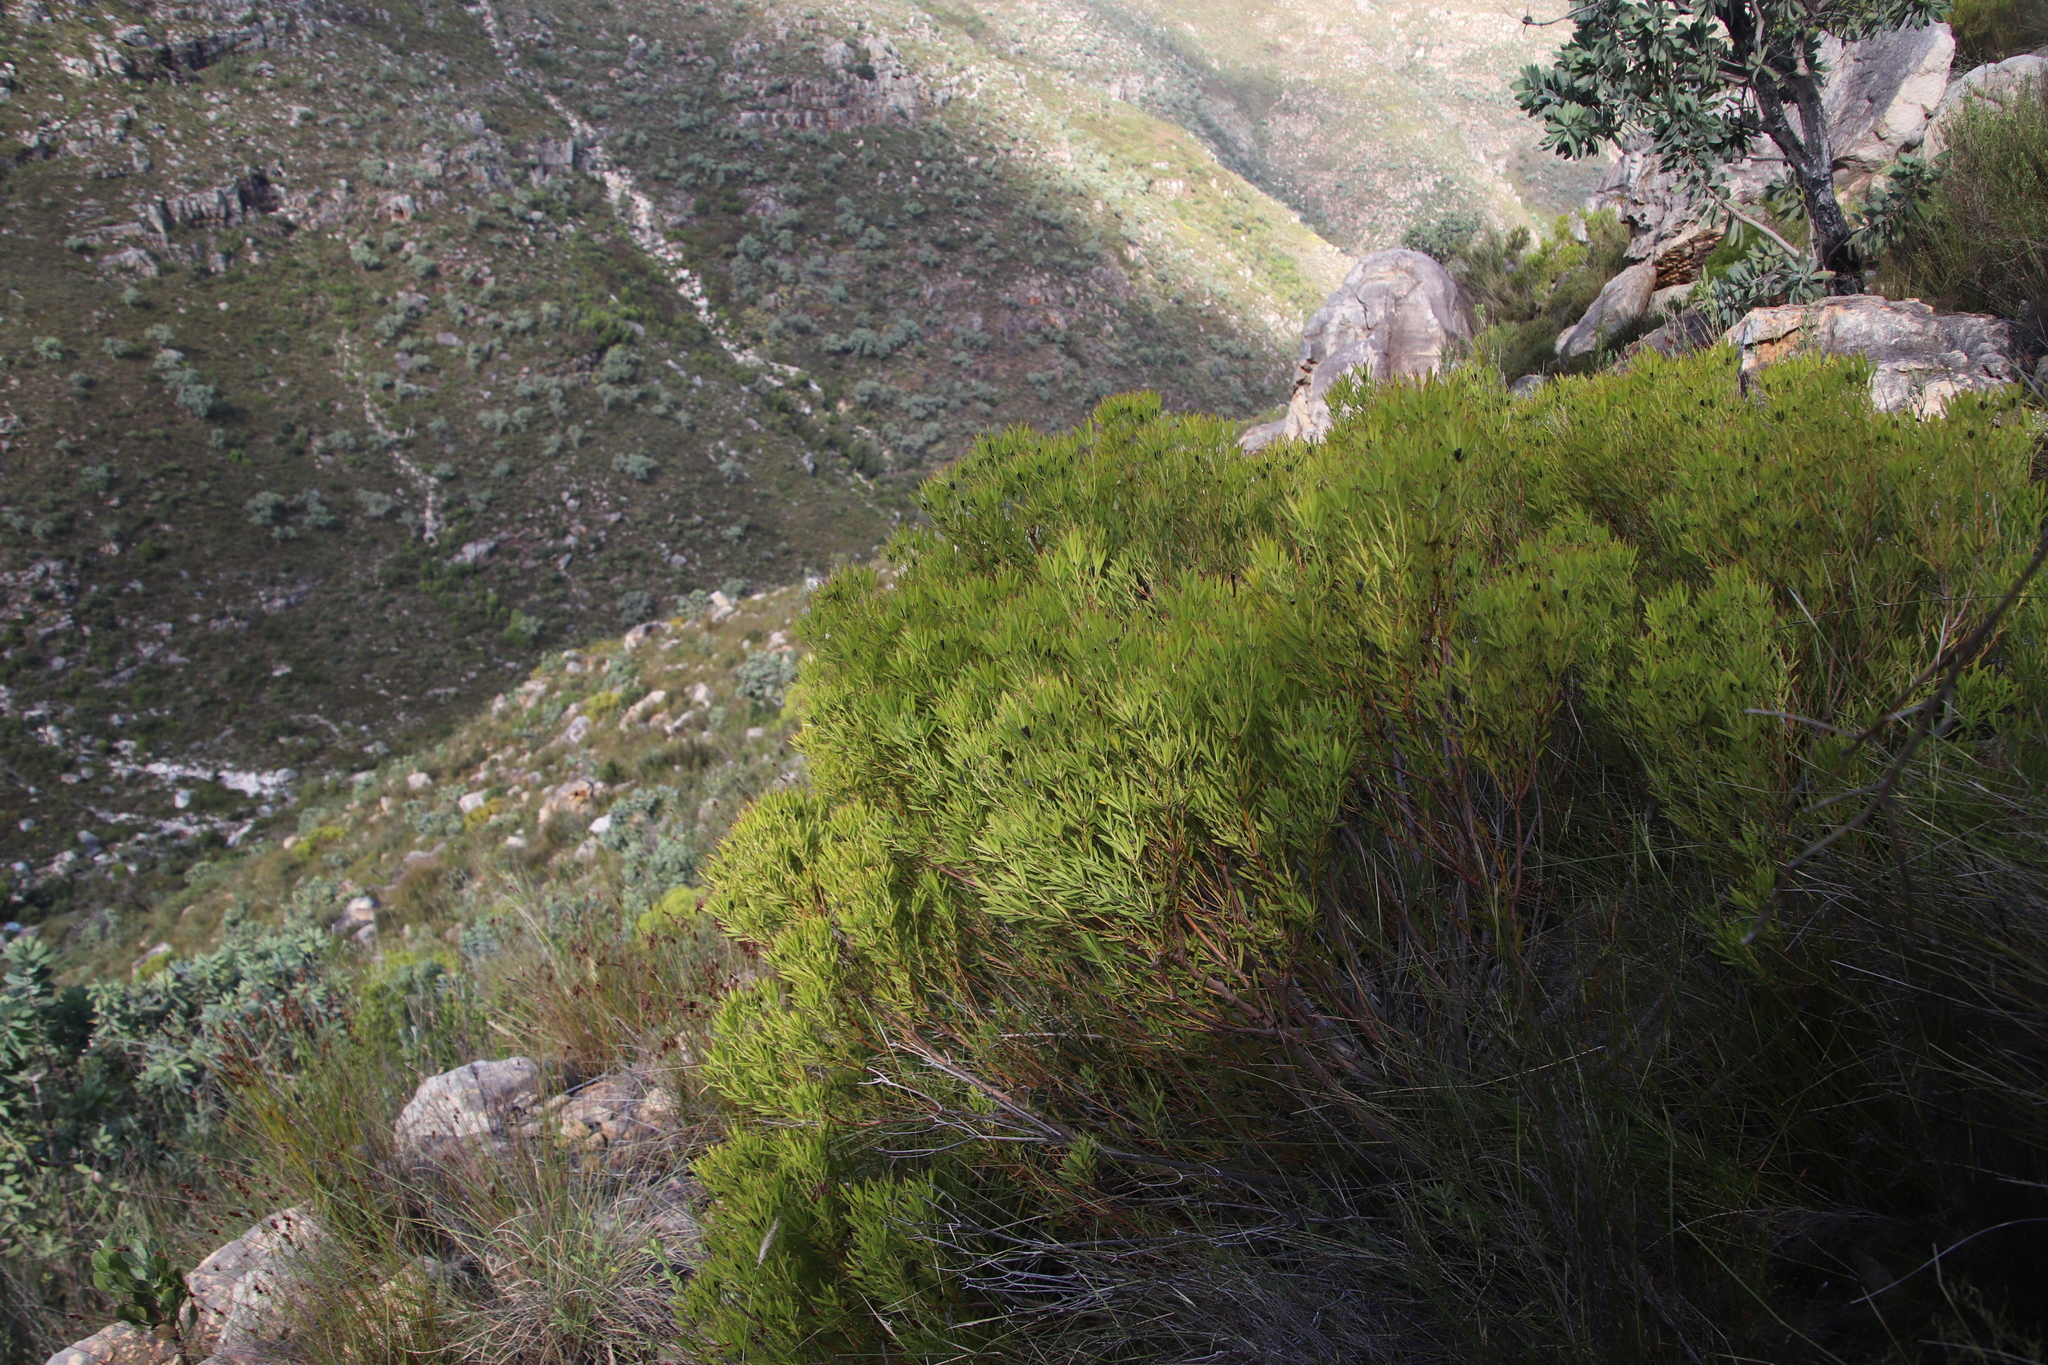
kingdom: Plantae
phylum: Tracheophyta
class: Magnoliopsida
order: Proteales
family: Proteaceae
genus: Leucadendron
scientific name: Leucadendron salignum
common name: Common sunshine conebush
